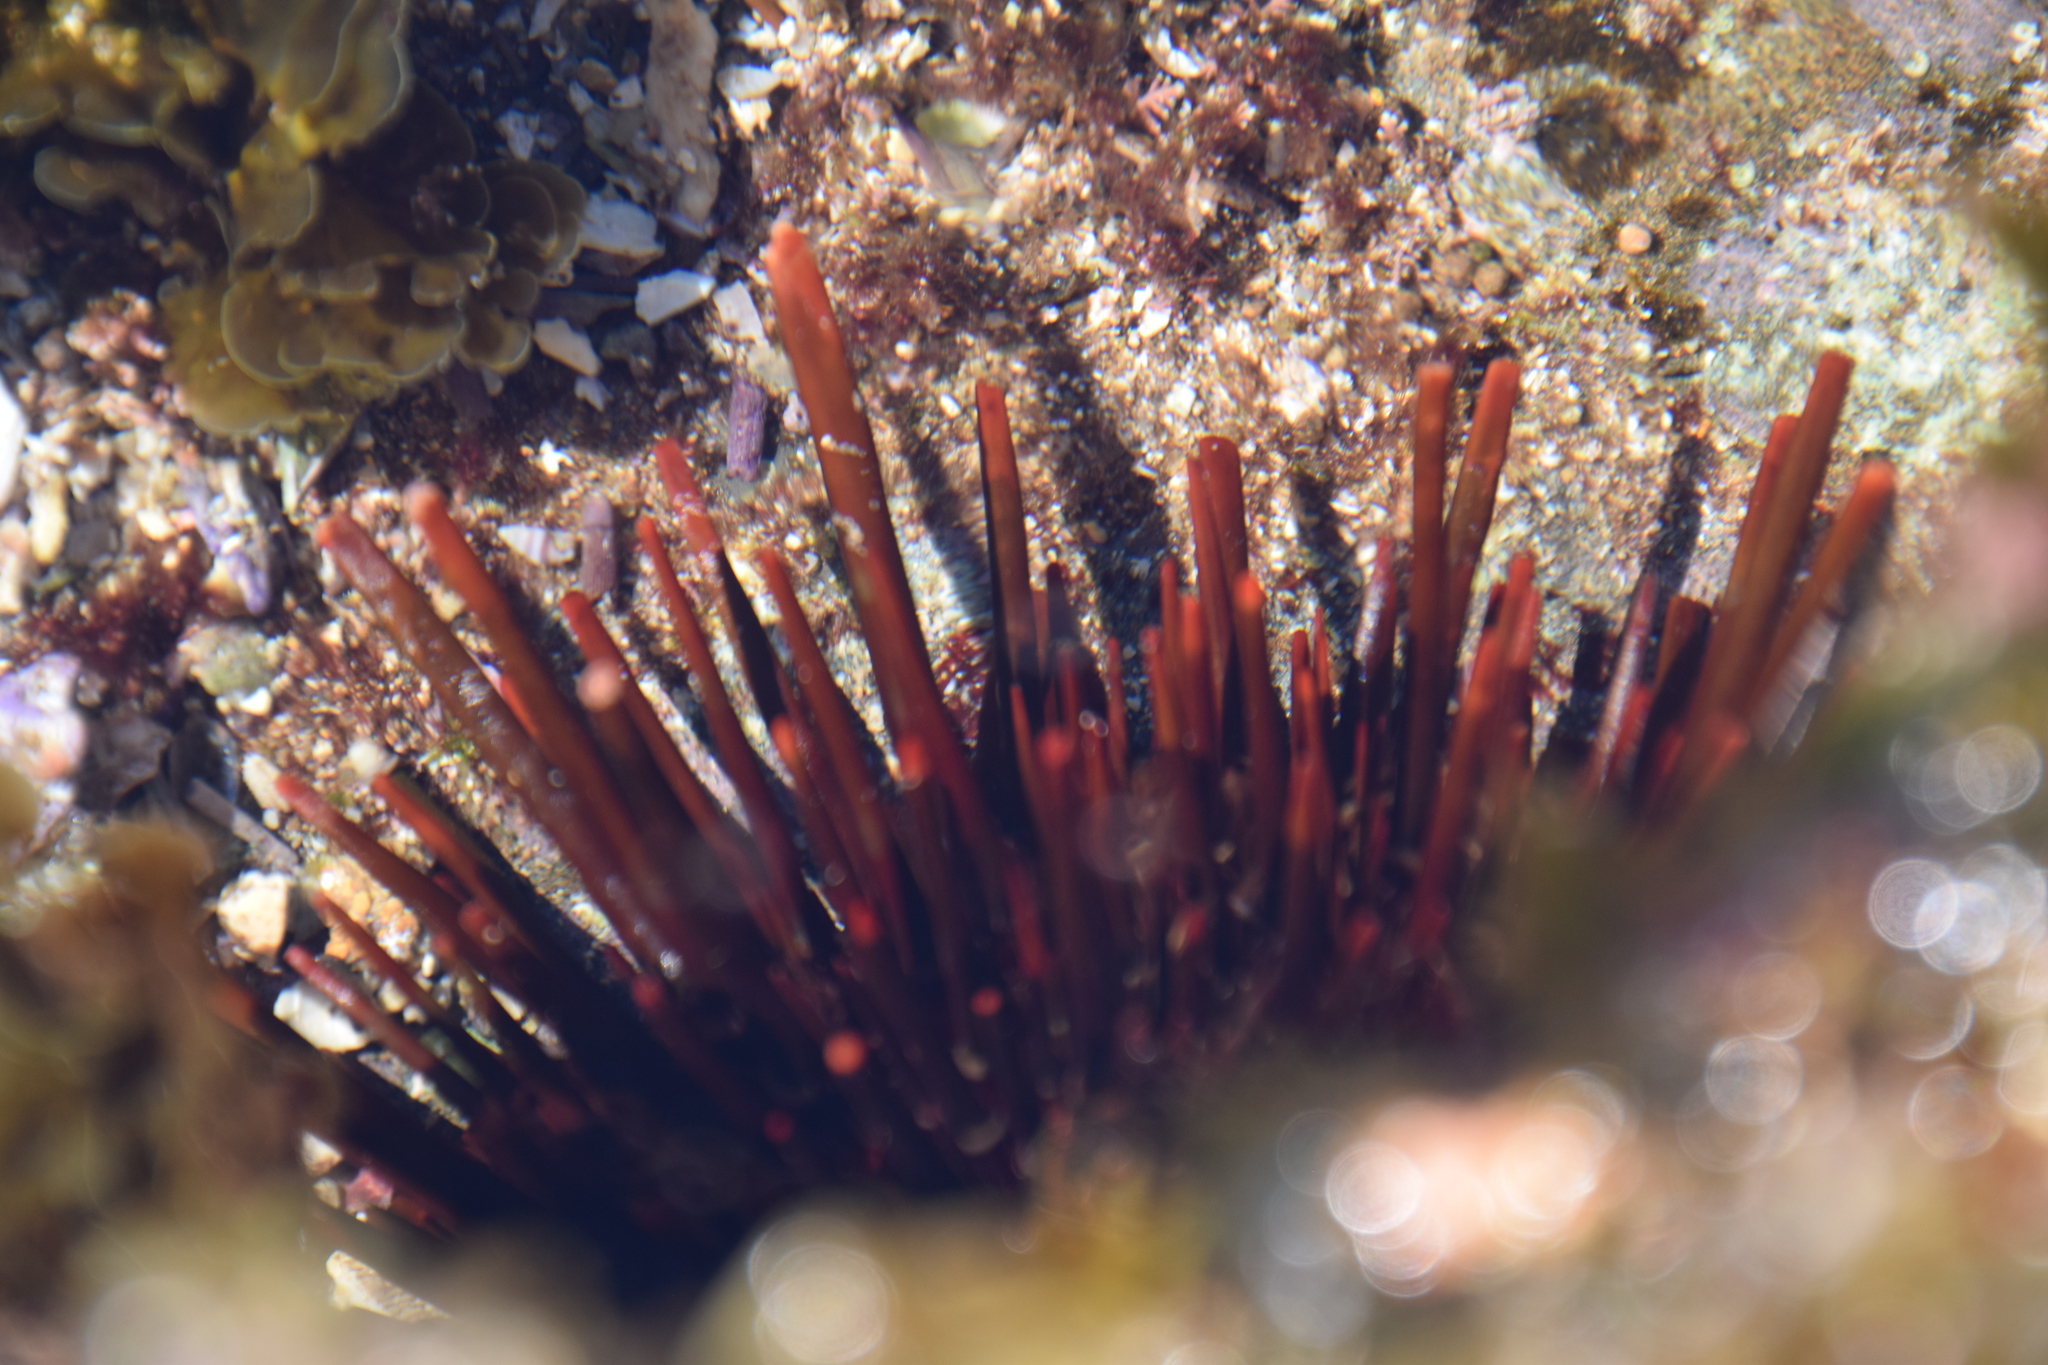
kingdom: Animalia
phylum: Echinodermata
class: Echinoidea
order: Camarodonta
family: Echinometridae
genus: Heliocidaris
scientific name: Heliocidaris tuberculata
